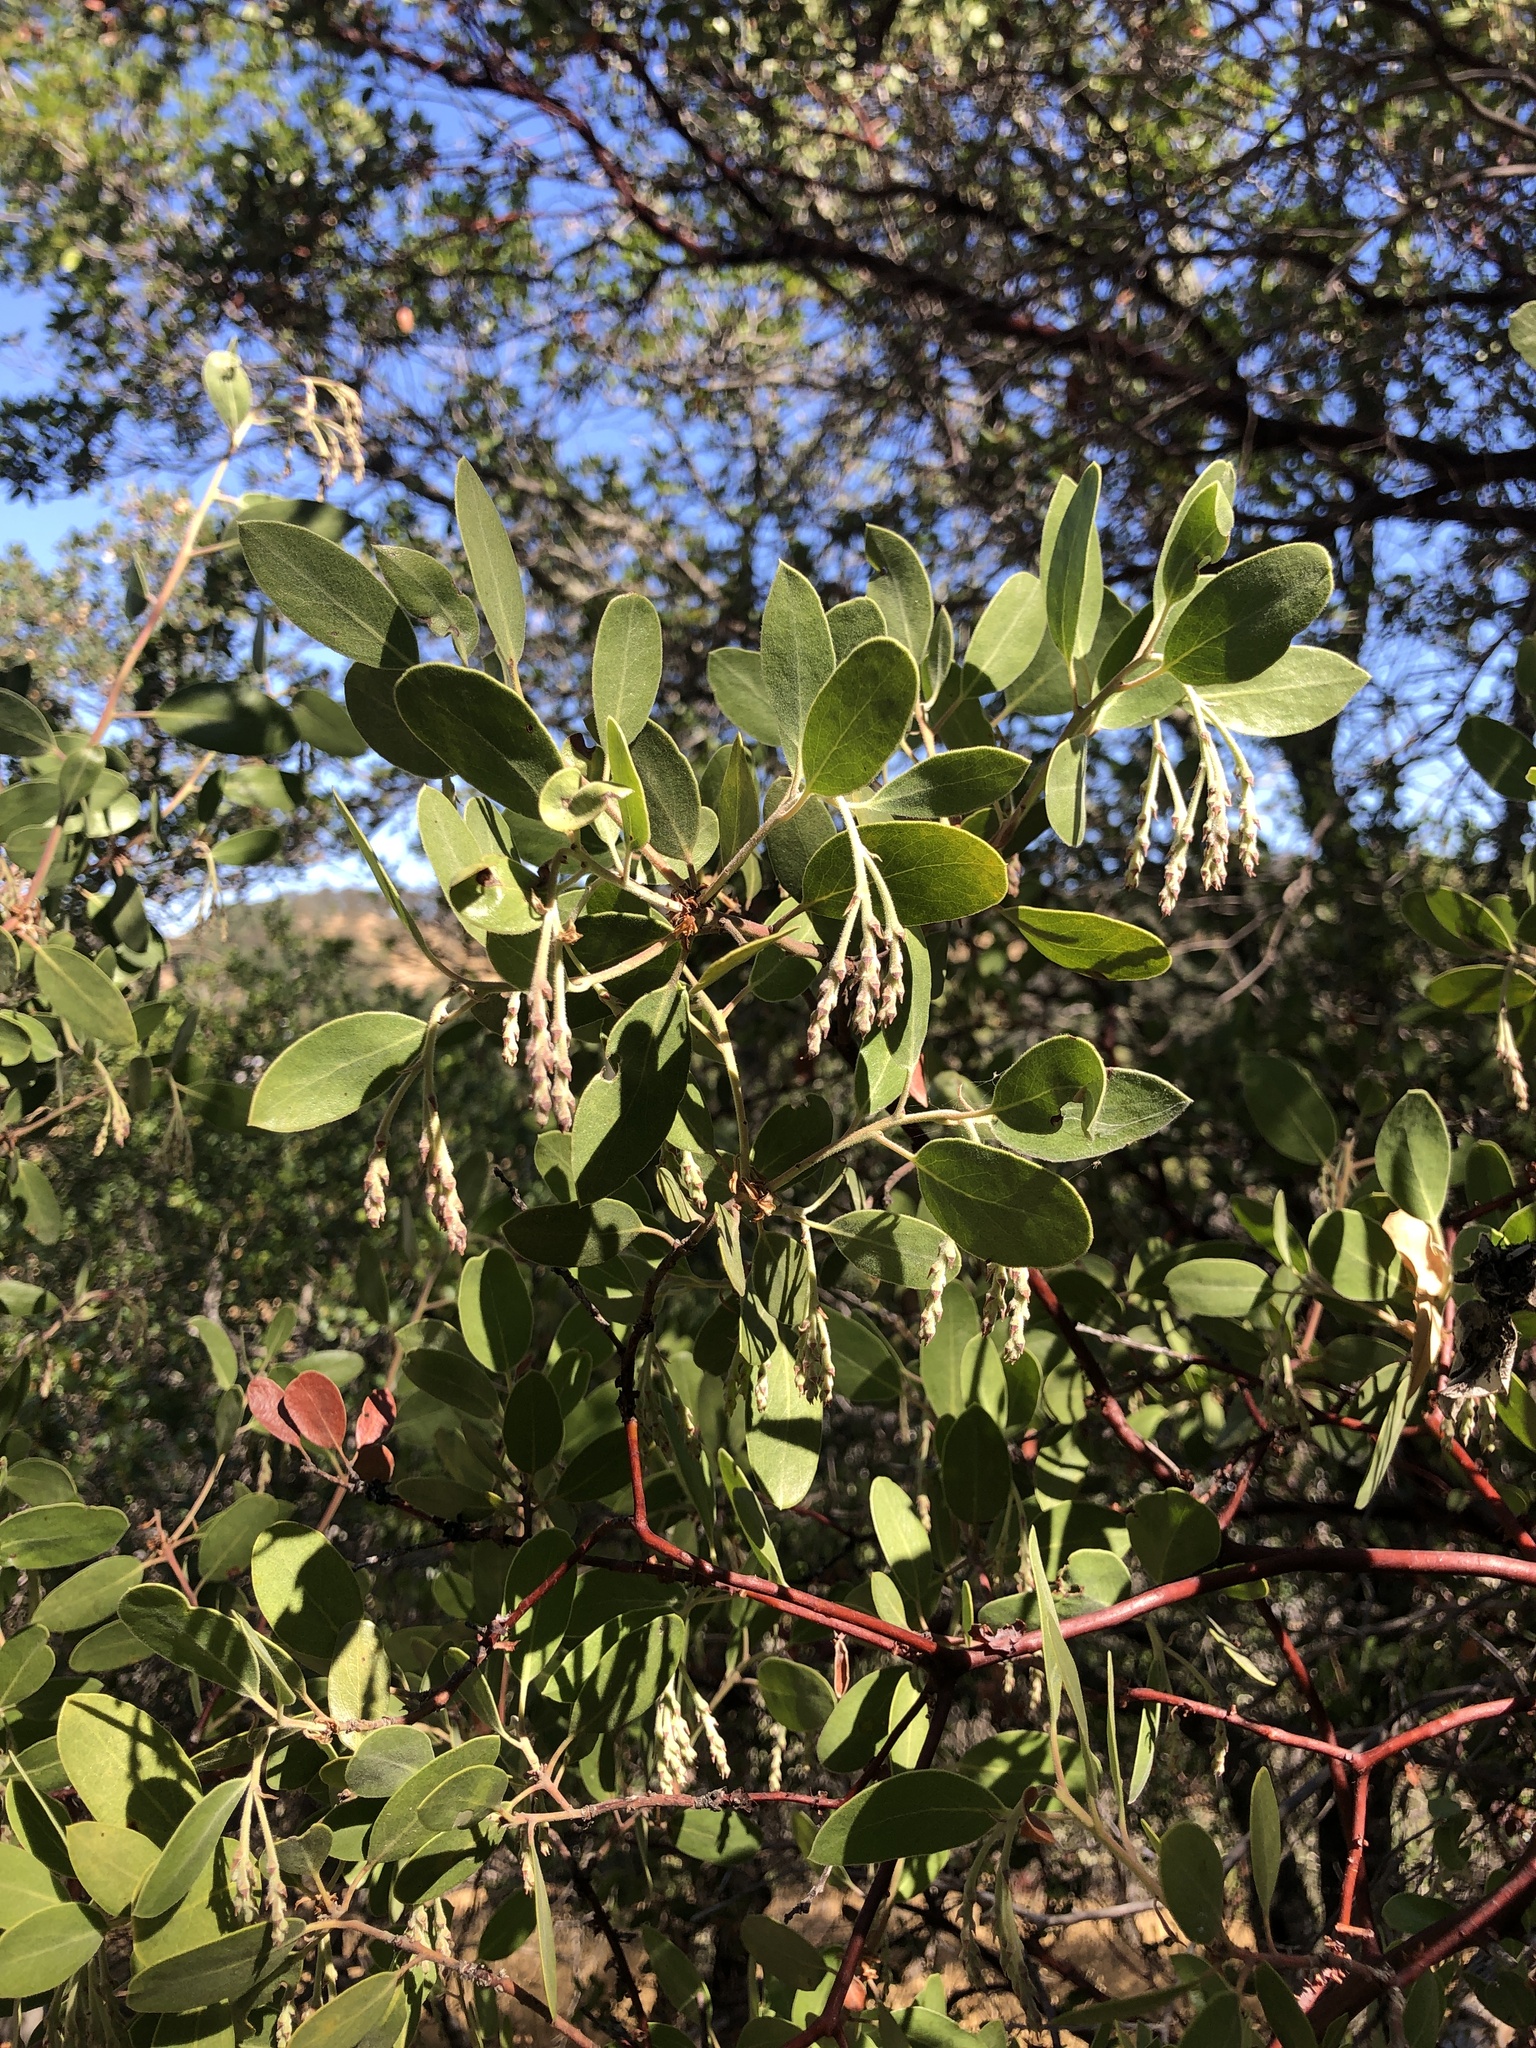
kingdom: Plantae
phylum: Tracheophyta
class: Magnoliopsida
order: Ericales
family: Ericaceae
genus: Arctostaphylos
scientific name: Arctostaphylos manzanita
